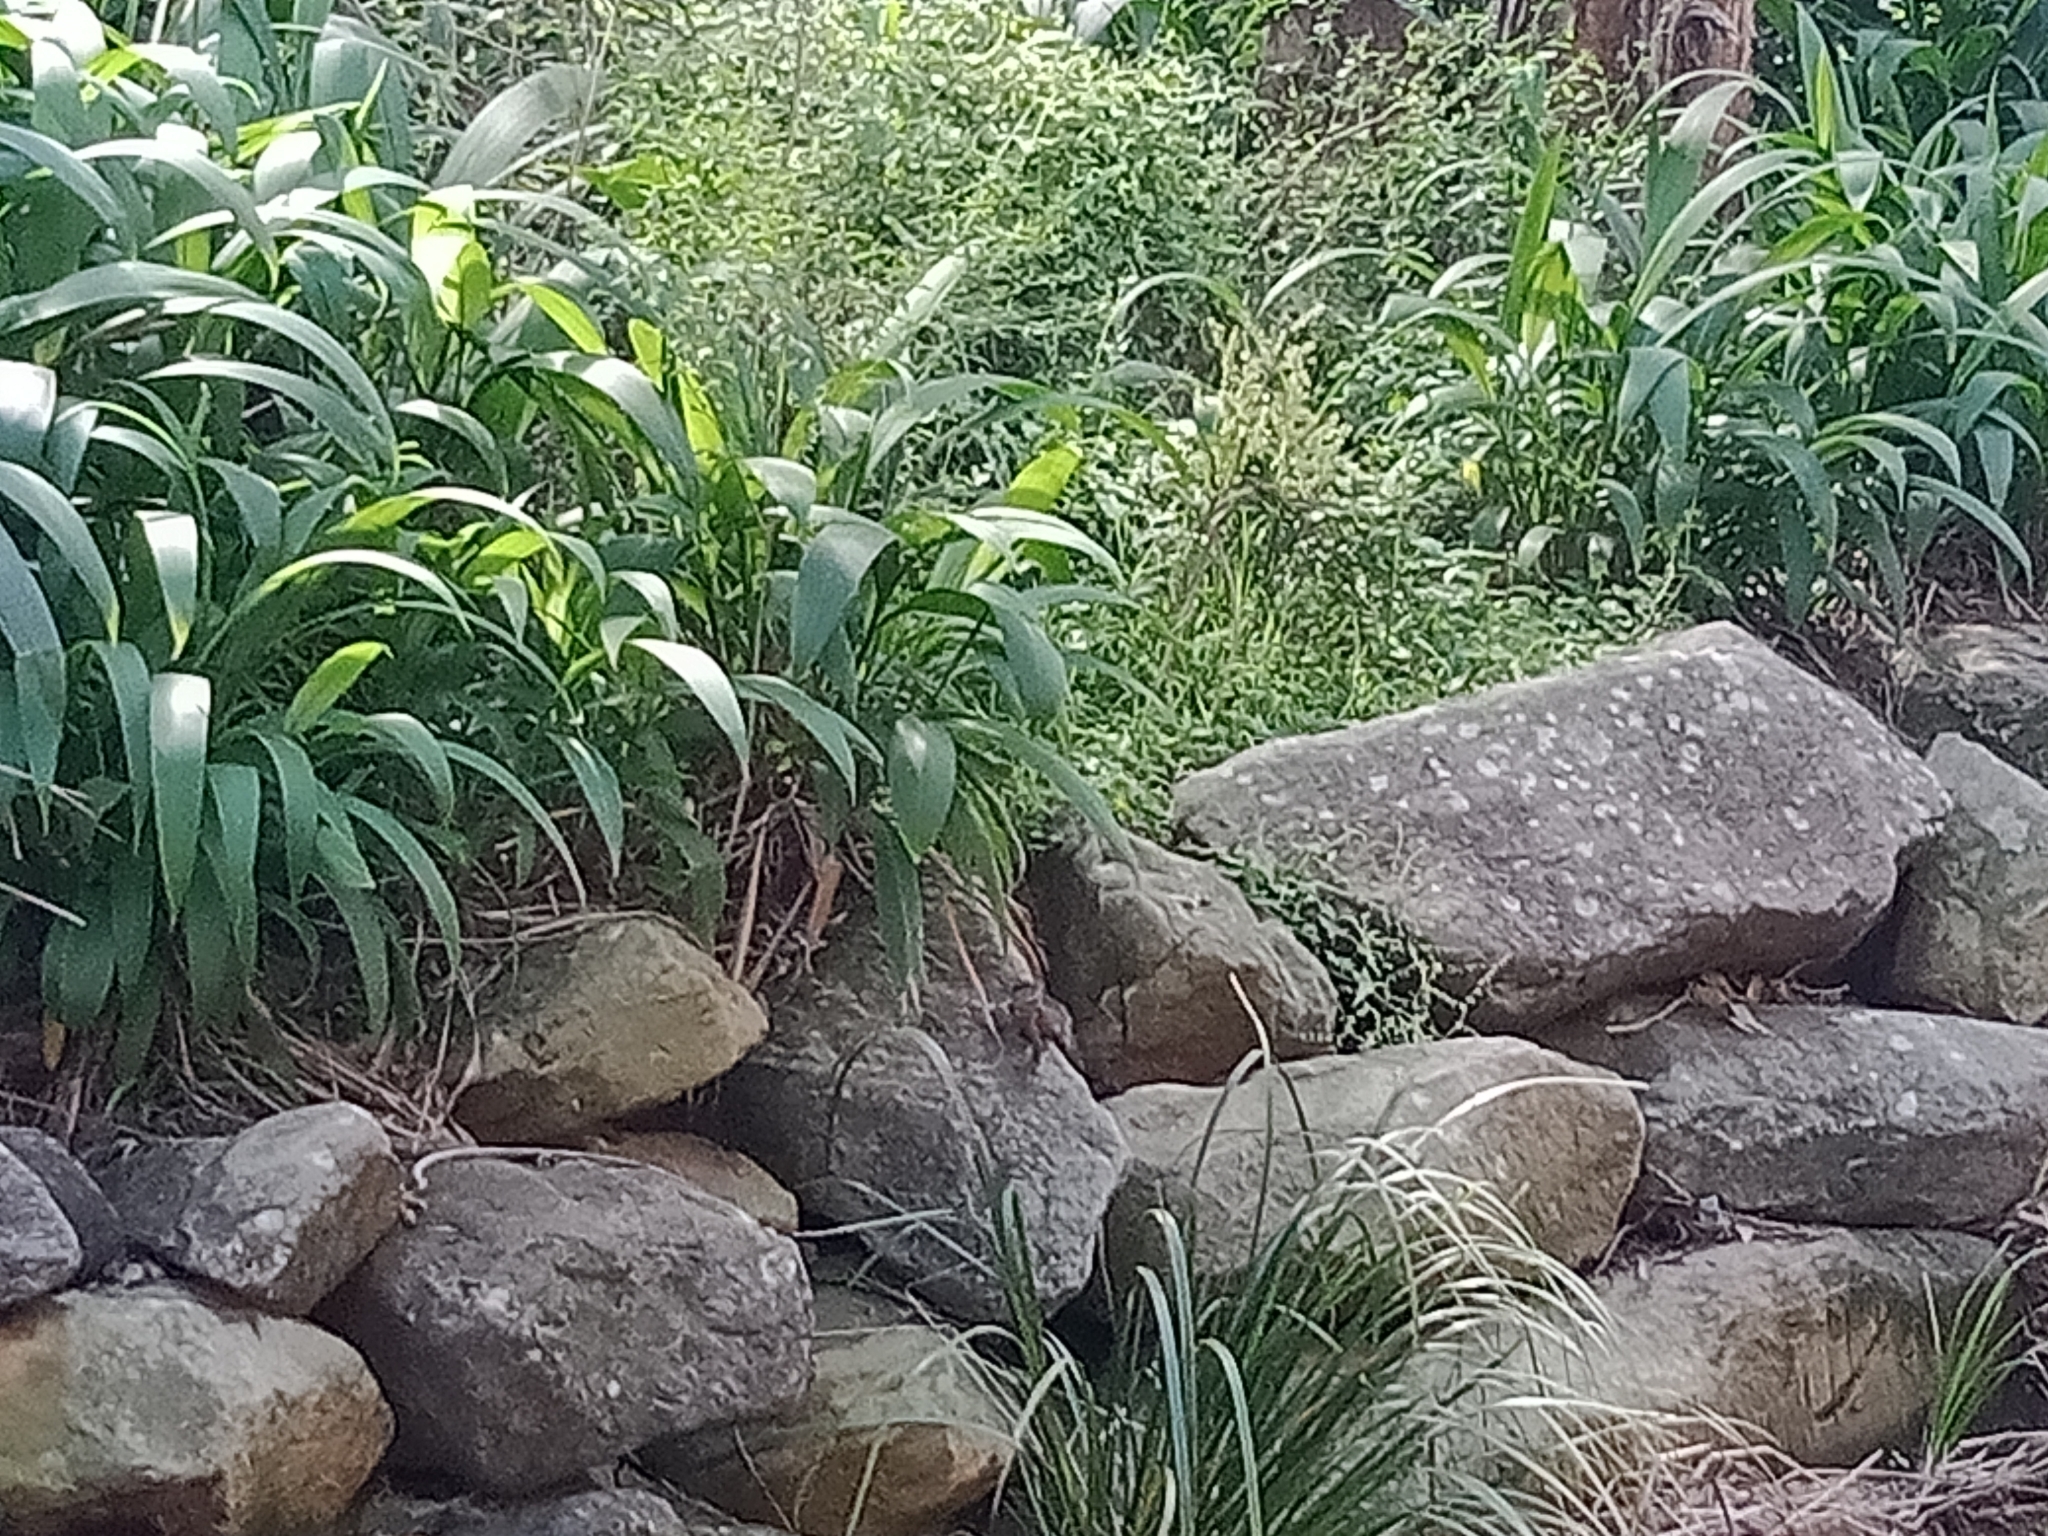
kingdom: Animalia
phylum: Chordata
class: Squamata
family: Agamidae
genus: Intellagama
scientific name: Intellagama lesueurii
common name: Eastern water dragon
